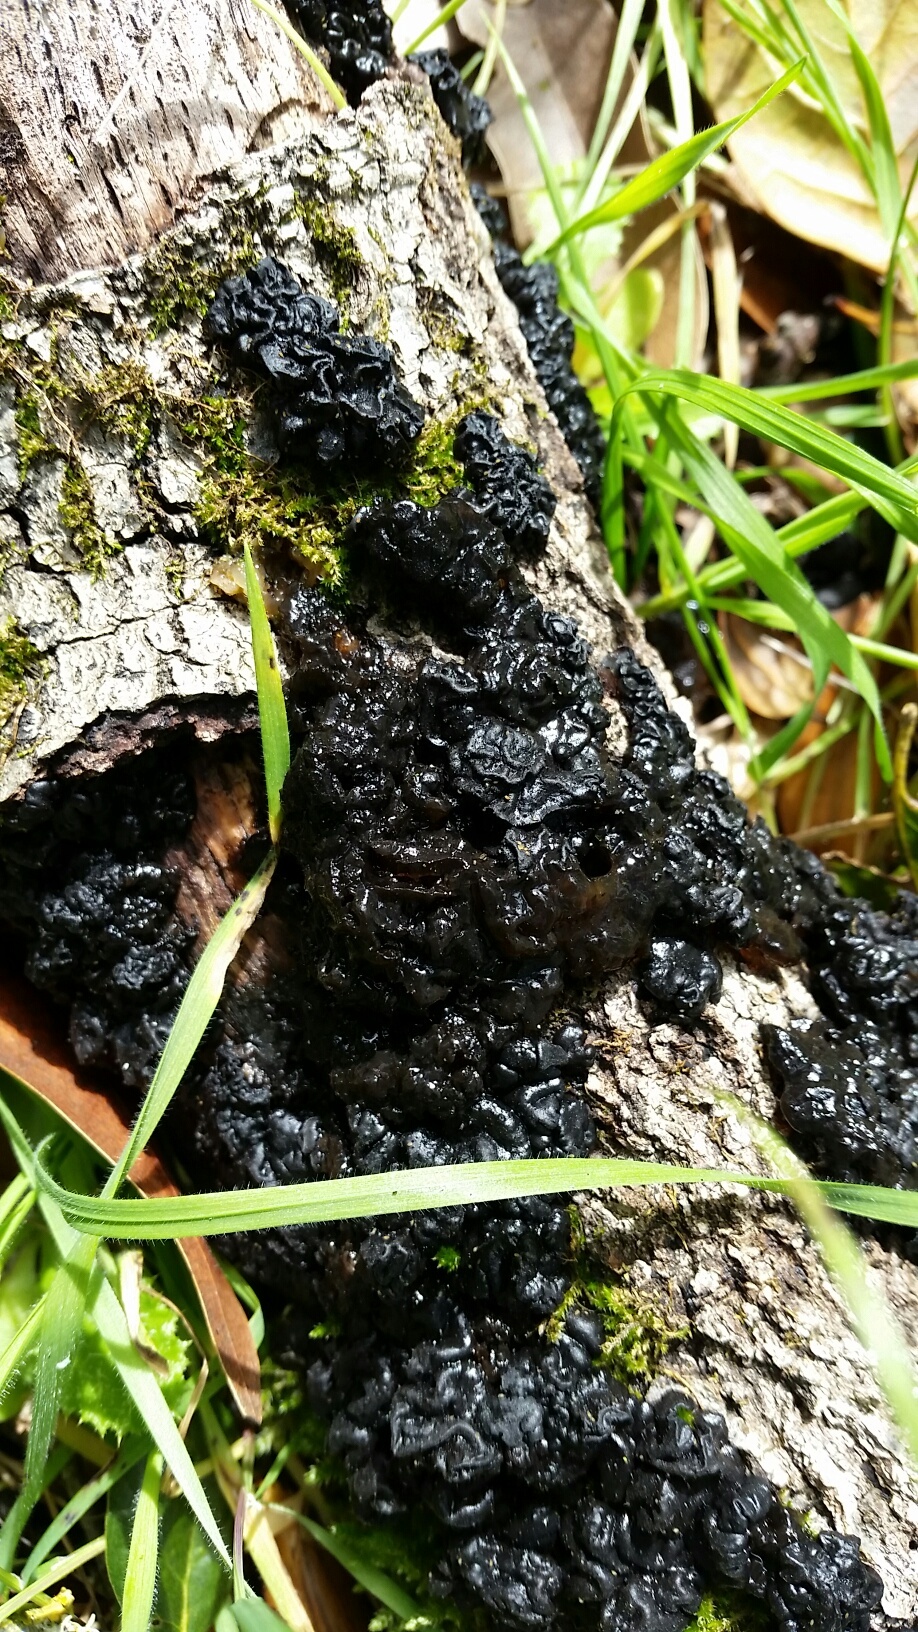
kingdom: Fungi
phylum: Basidiomycota
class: Agaricomycetes
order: Auriculariales
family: Auriculariaceae
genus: Exidia
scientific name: Exidia glandulosa
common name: Witches' butter
